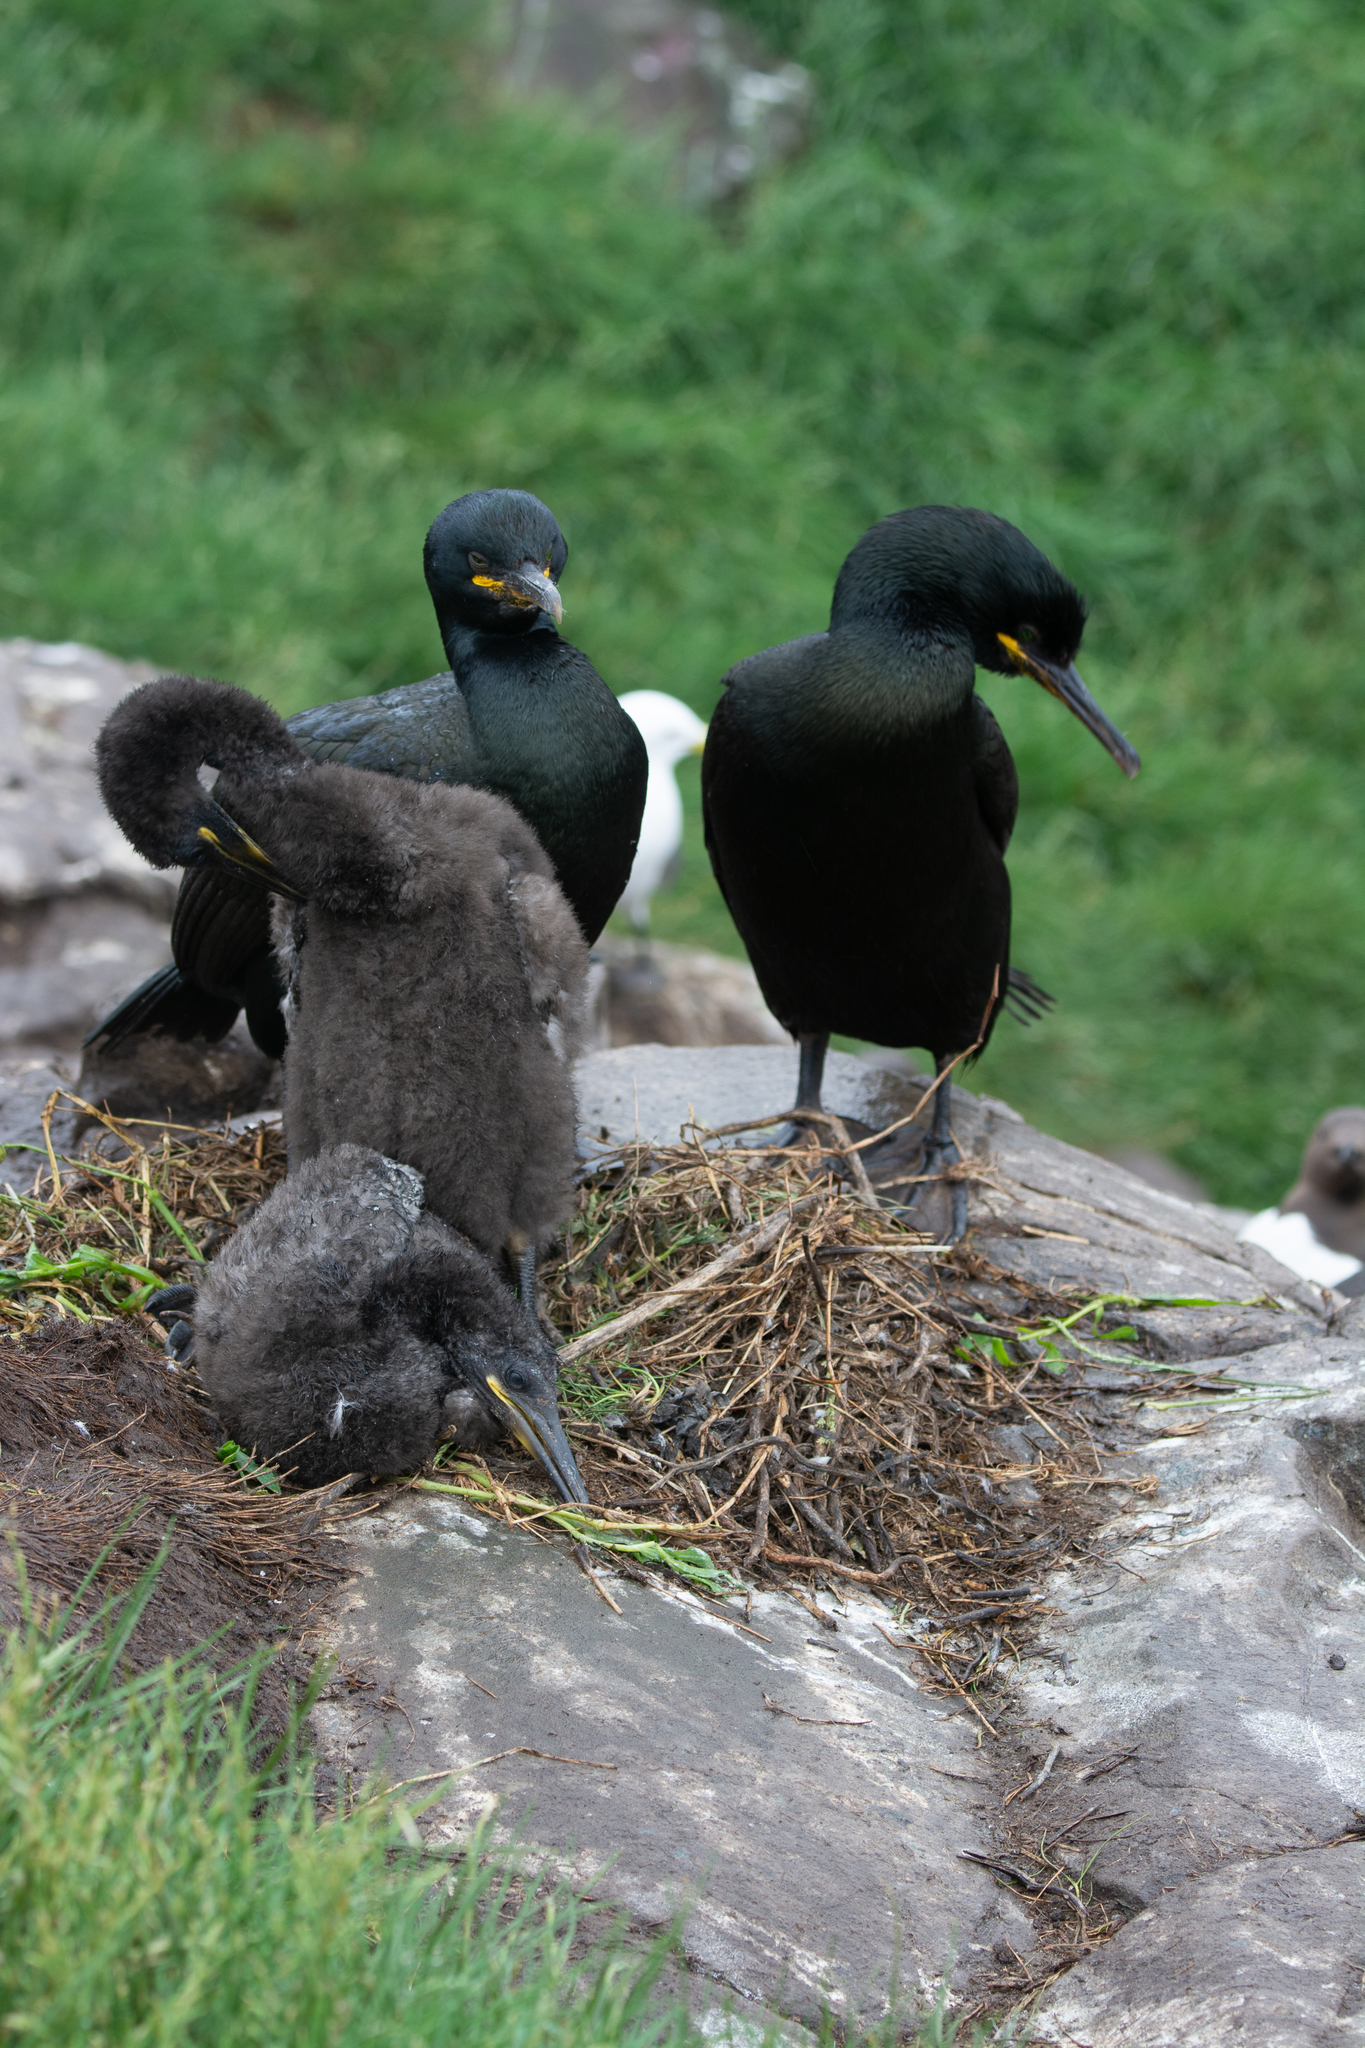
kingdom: Animalia
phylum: Chordata
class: Aves
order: Suliformes
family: Phalacrocoracidae
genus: Phalacrocorax
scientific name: Phalacrocorax aristotelis
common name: European shag
